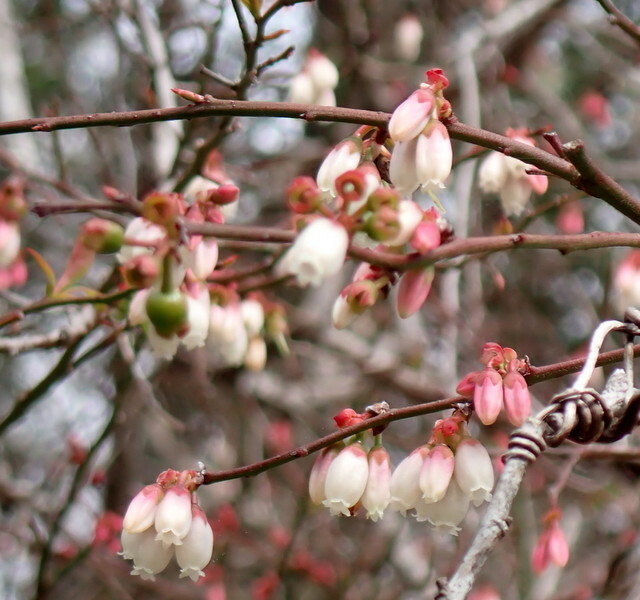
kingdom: Plantae
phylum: Tracheophyta
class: Magnoliopsida
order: Ericales
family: Ericaceae
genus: Vaccinium
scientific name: Vaccinium corymbosum
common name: Blueberry
